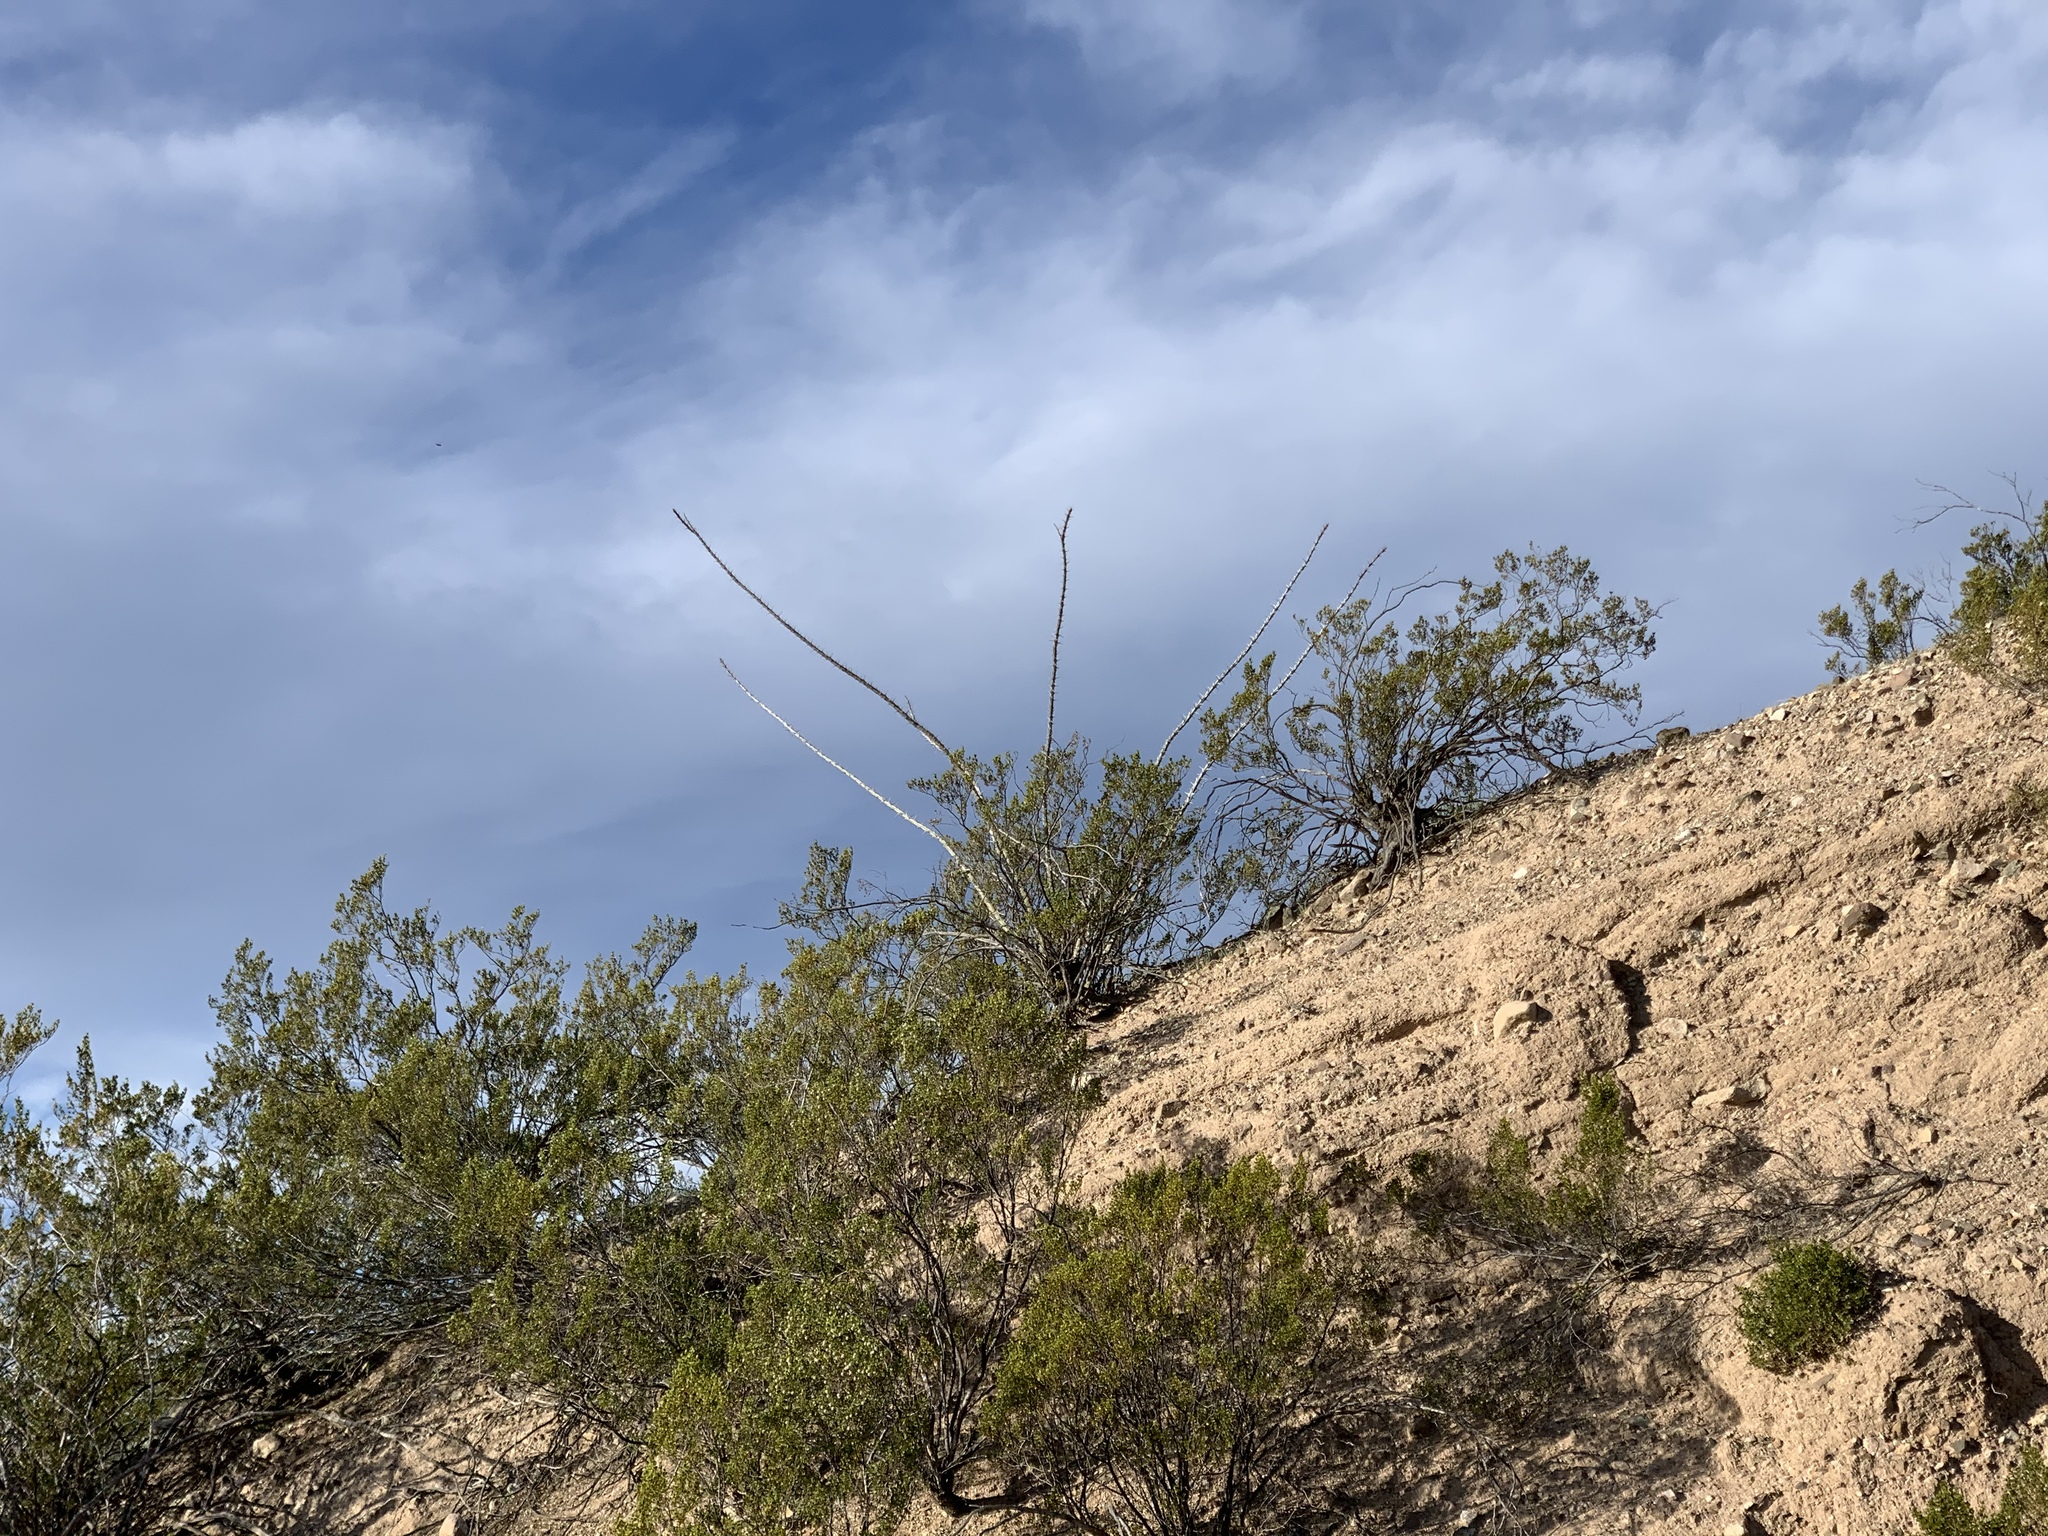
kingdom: Plantae
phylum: Tracheophyta
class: Magnoliopsida
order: Zygophyllales
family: Zygophyllaceae
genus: Larrea
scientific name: Larrea tridentata
